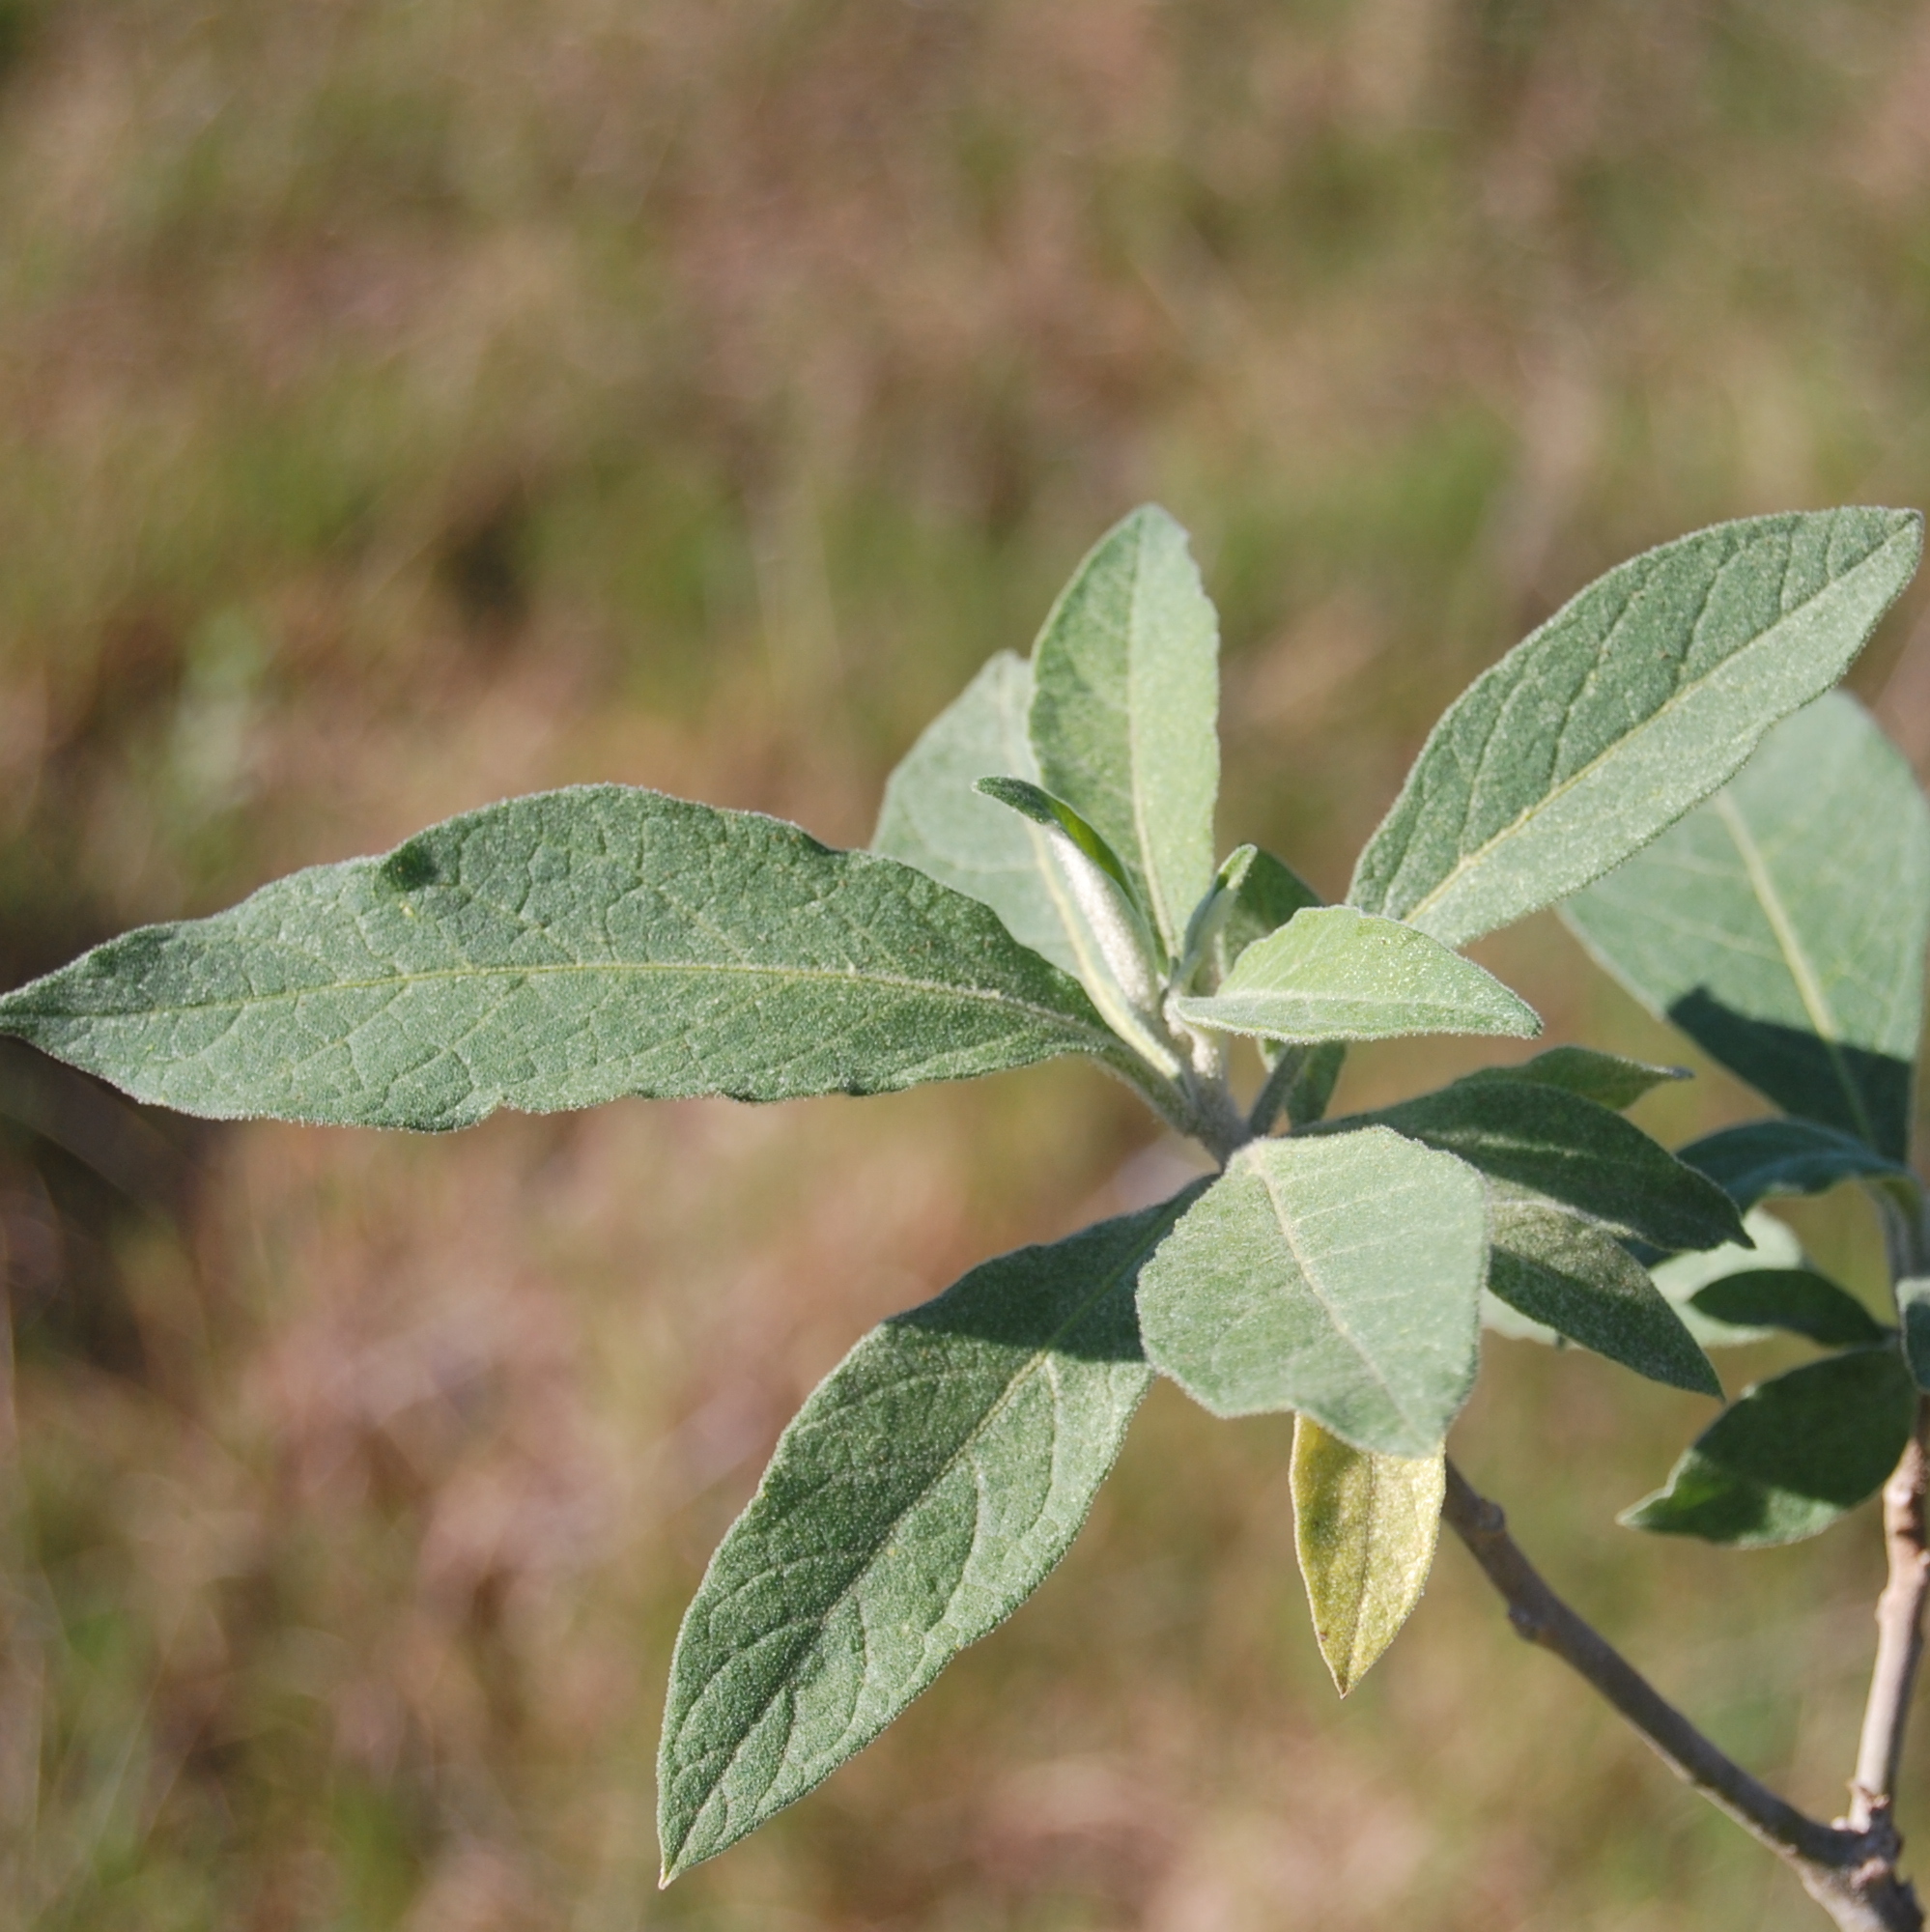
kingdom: Plantae
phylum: Tracheophyta
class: Magnoliopsida
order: Solanales
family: Solanaceae
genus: Solanum
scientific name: Solanum mauritianum
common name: Earleaf nightshade
